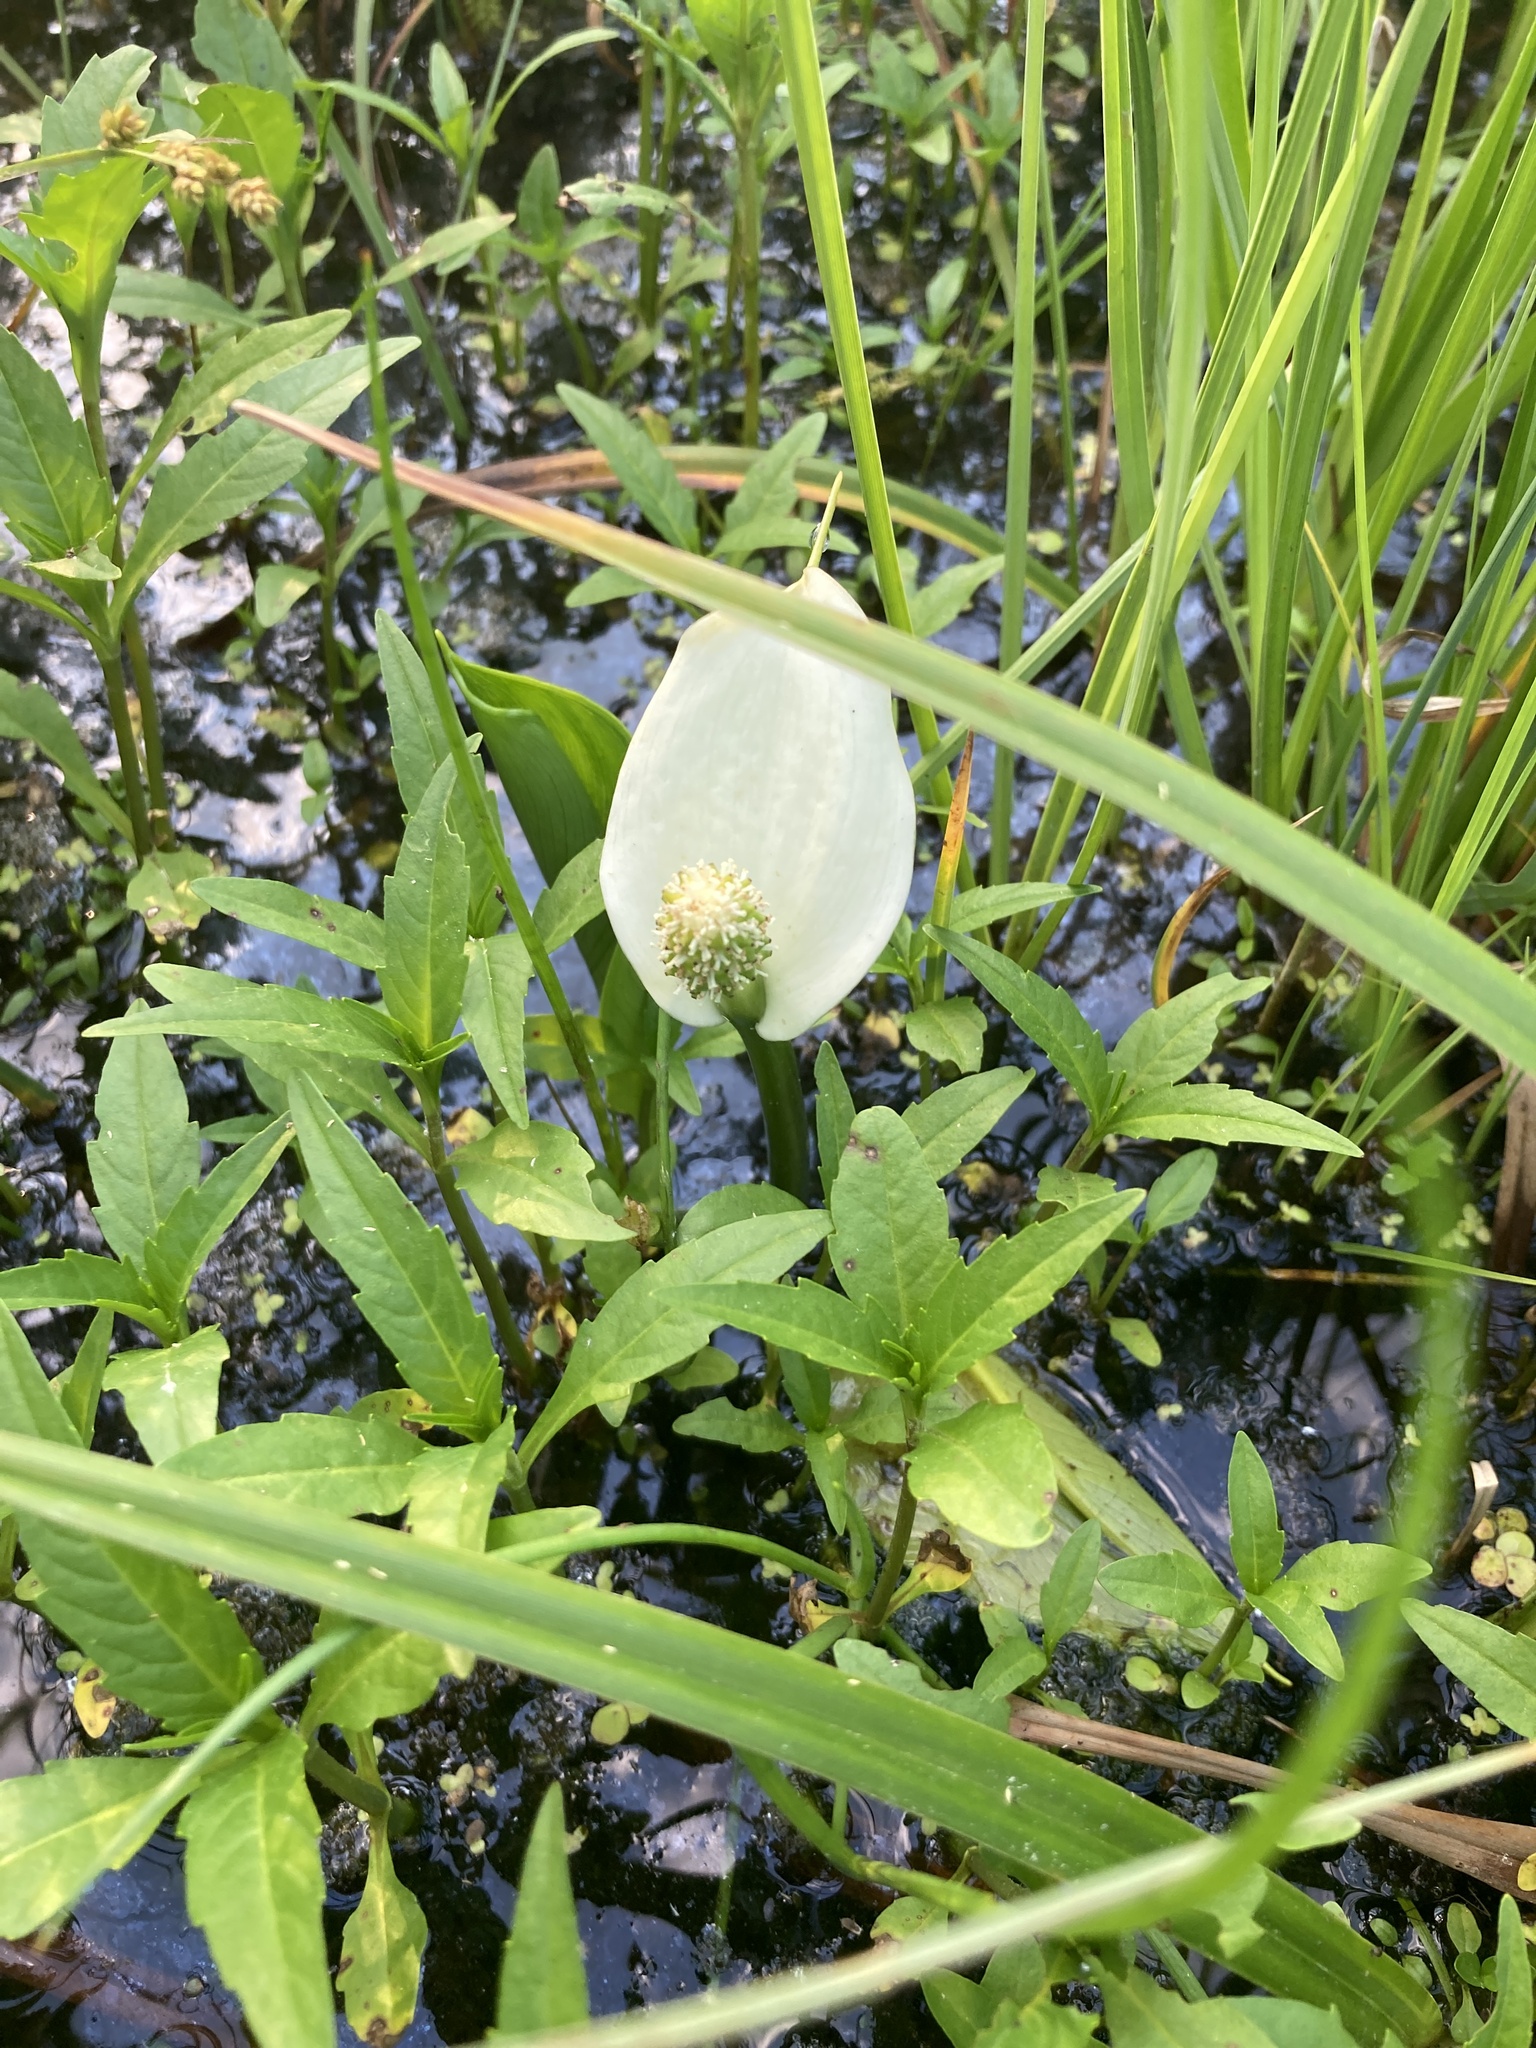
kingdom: Plantae
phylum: Tracheophyta
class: Liliopsida
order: Alismatales
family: Araceae
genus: Calla
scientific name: Calla palustris
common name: Bog arum
